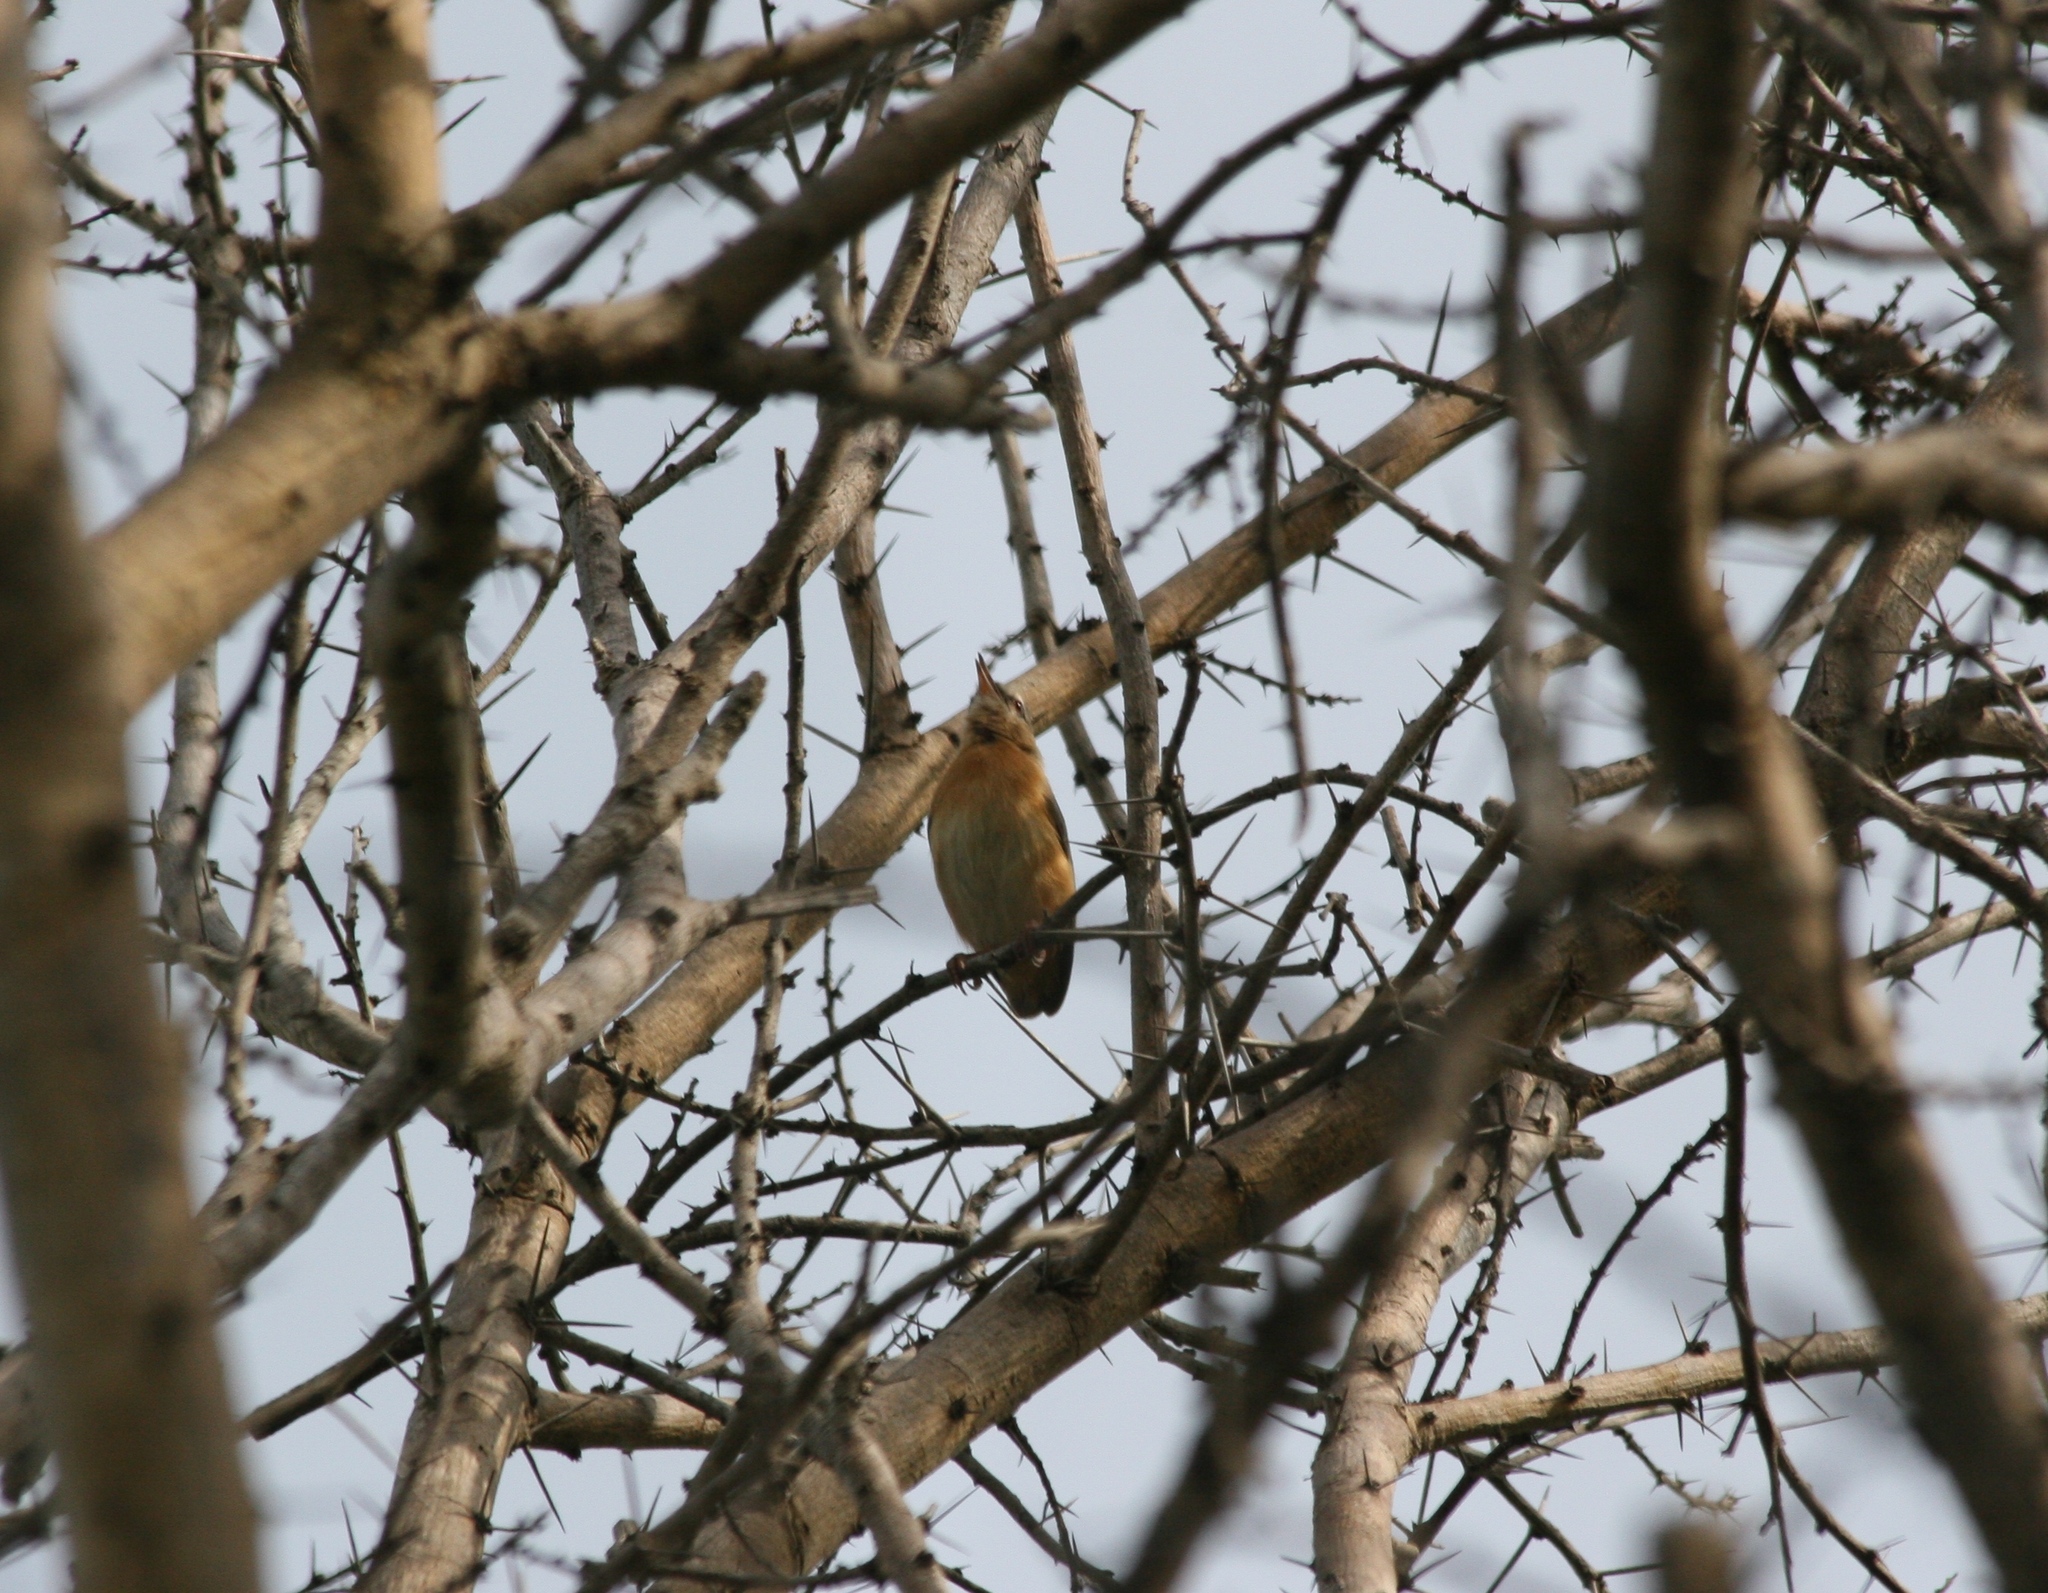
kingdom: Animalia
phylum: Chordata
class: Aves
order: Passeriformes
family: Macrosphenidae
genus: Sylvietta
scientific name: Sylvietta brachyura
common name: Northern crombec
